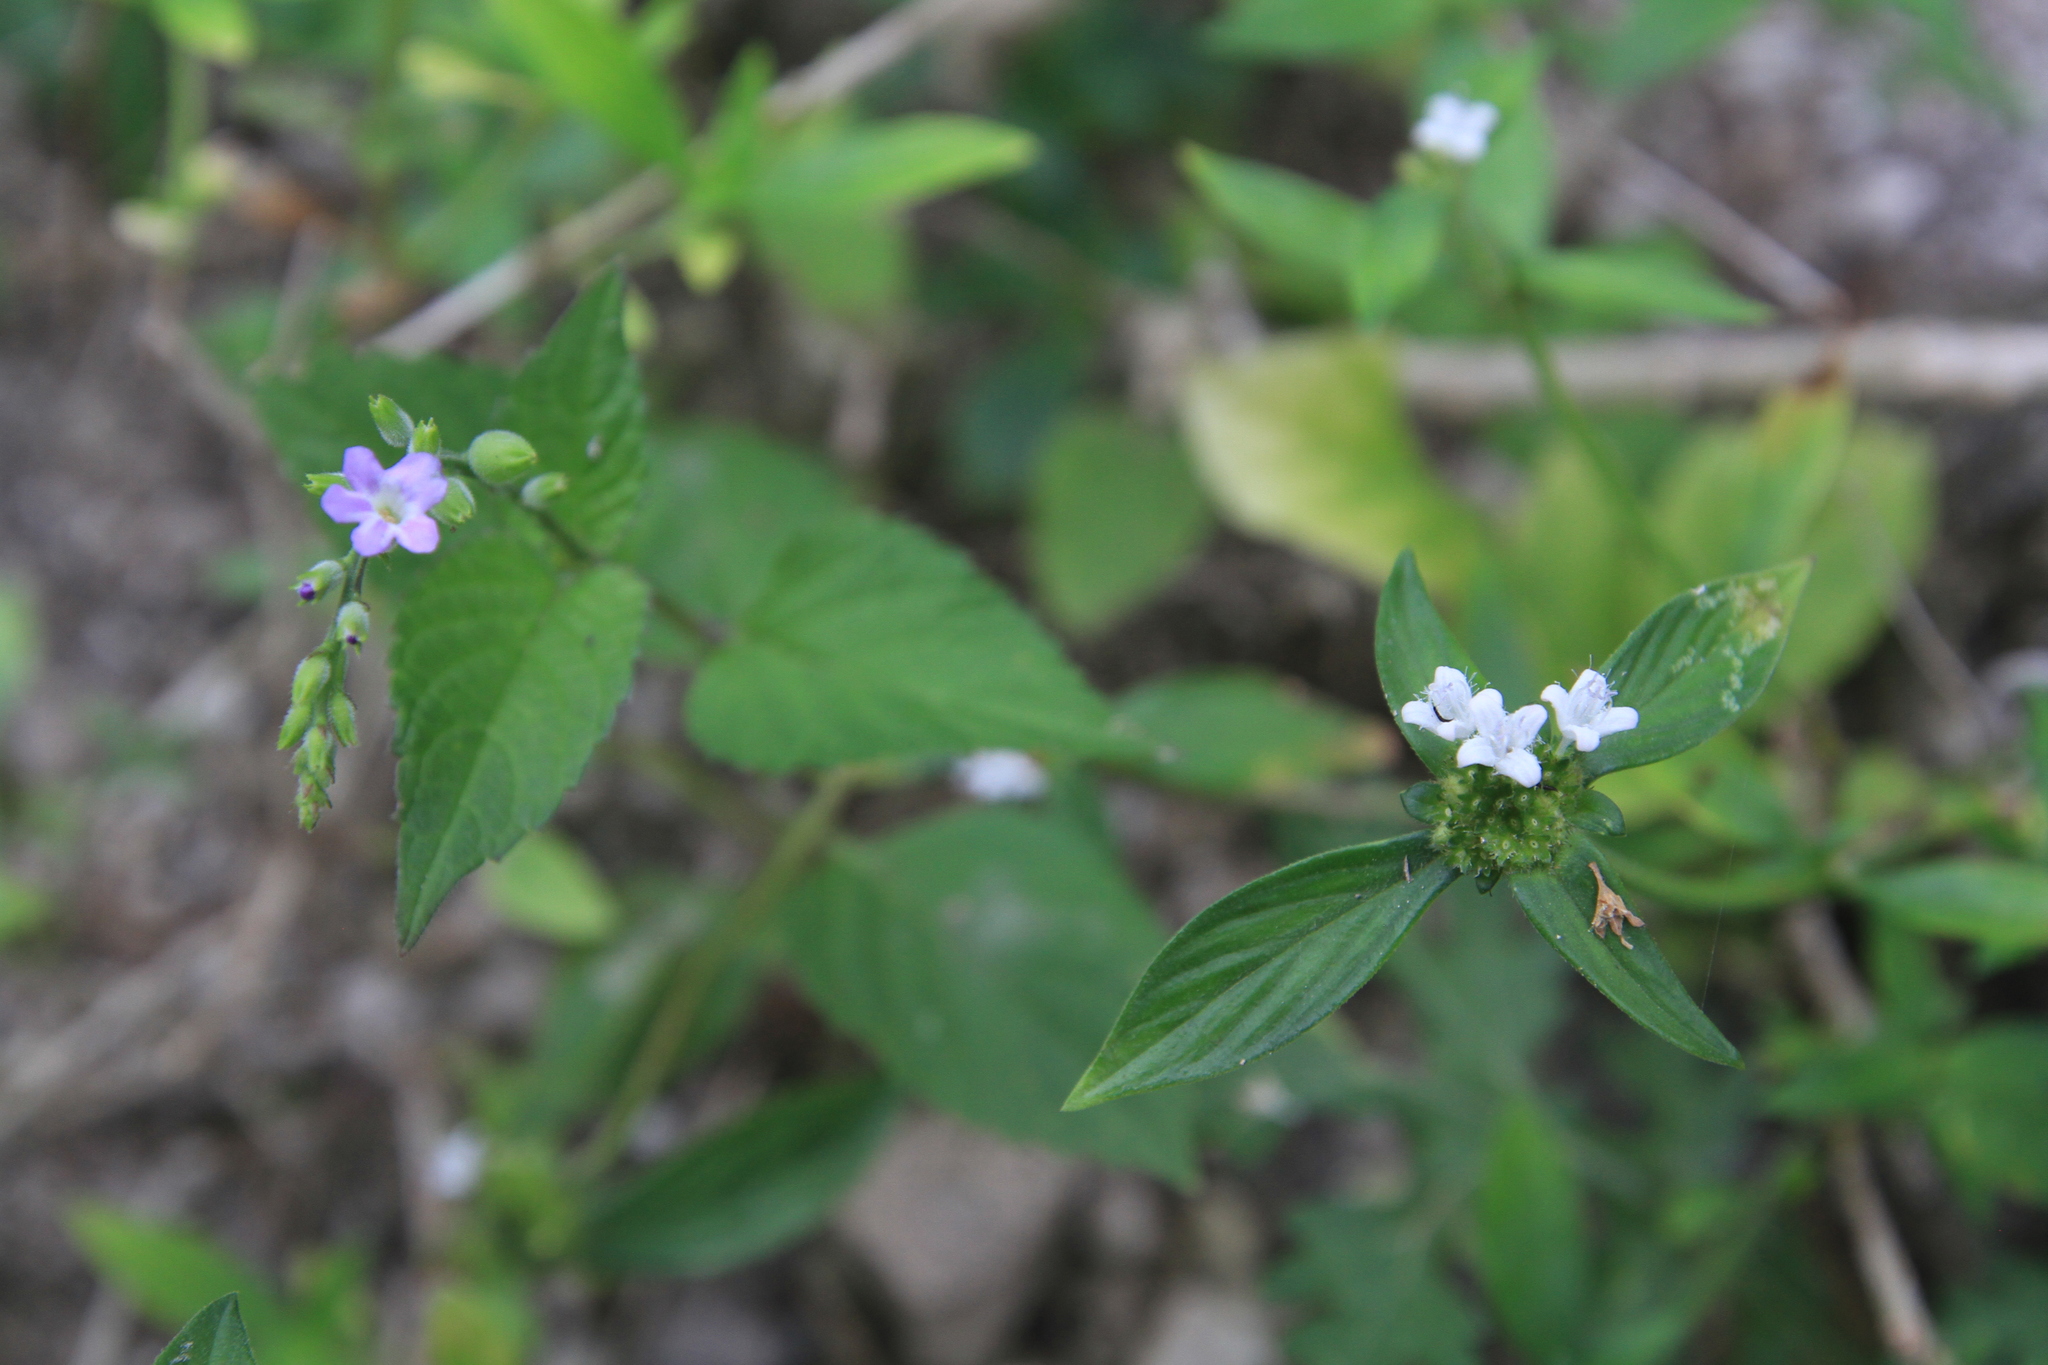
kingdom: Plantae
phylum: Tracheophyta
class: Magnoliopsida
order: Gentianales
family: Rubiaceae
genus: Spermacoce
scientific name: Spermacoce remota
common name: Woodland false buttonweed
